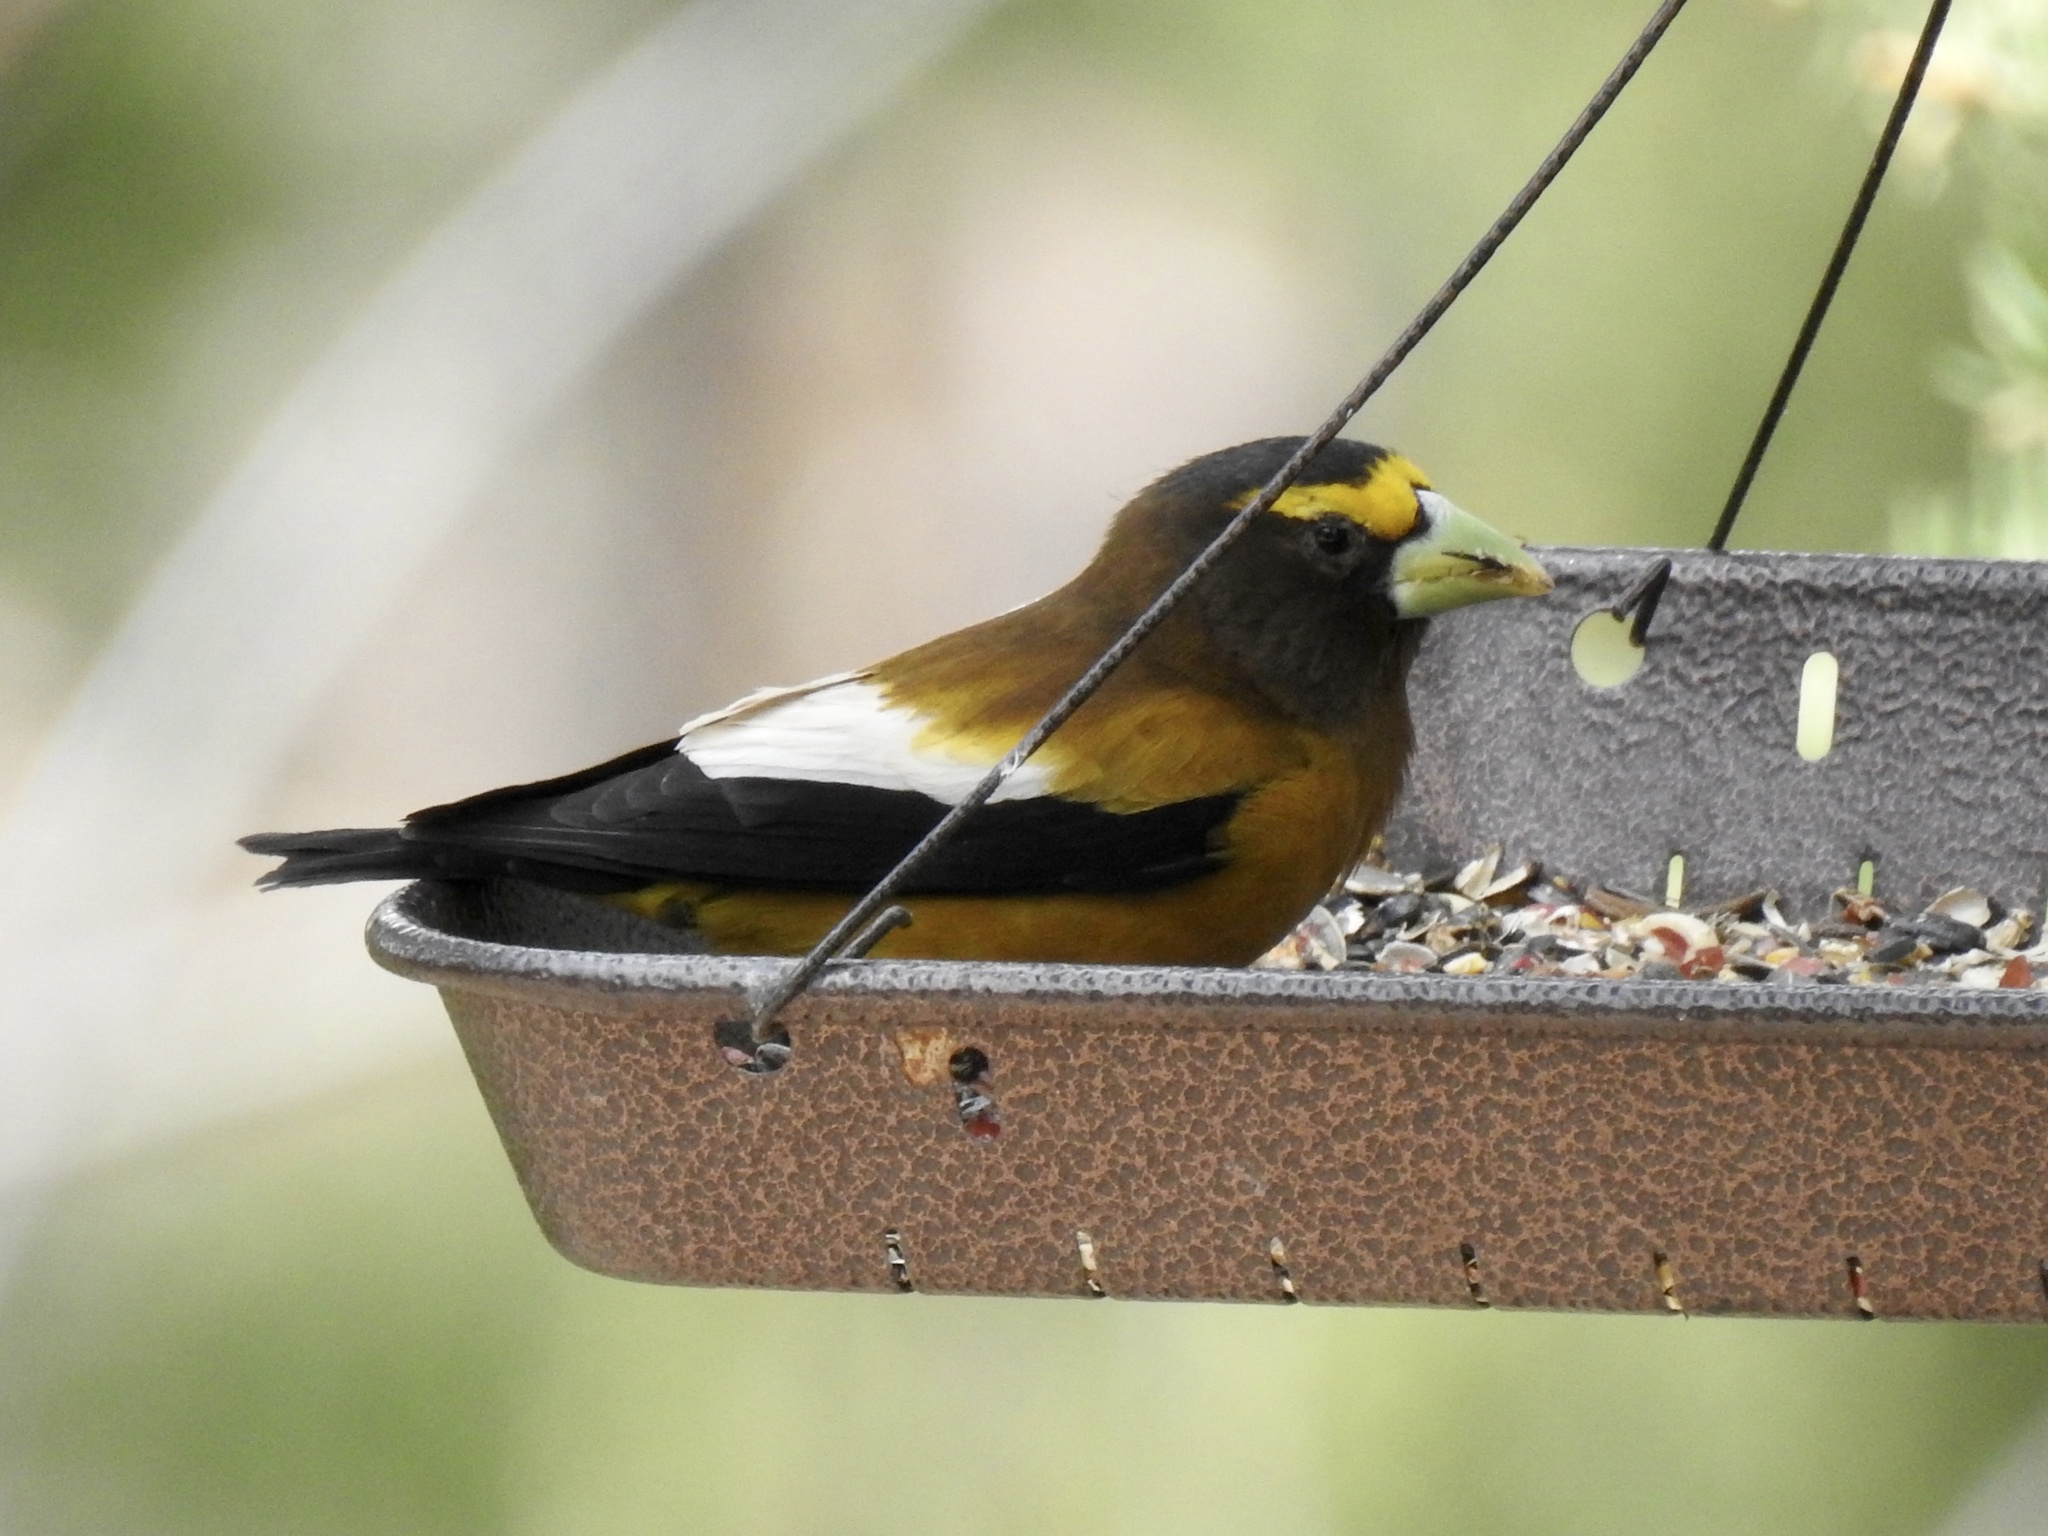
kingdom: Animalia
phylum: Chordata
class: Aves
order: Passeriformes
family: Fringillidae
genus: Hesperiphona
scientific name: Hesperiphona vespertina
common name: Evening grosbeak
